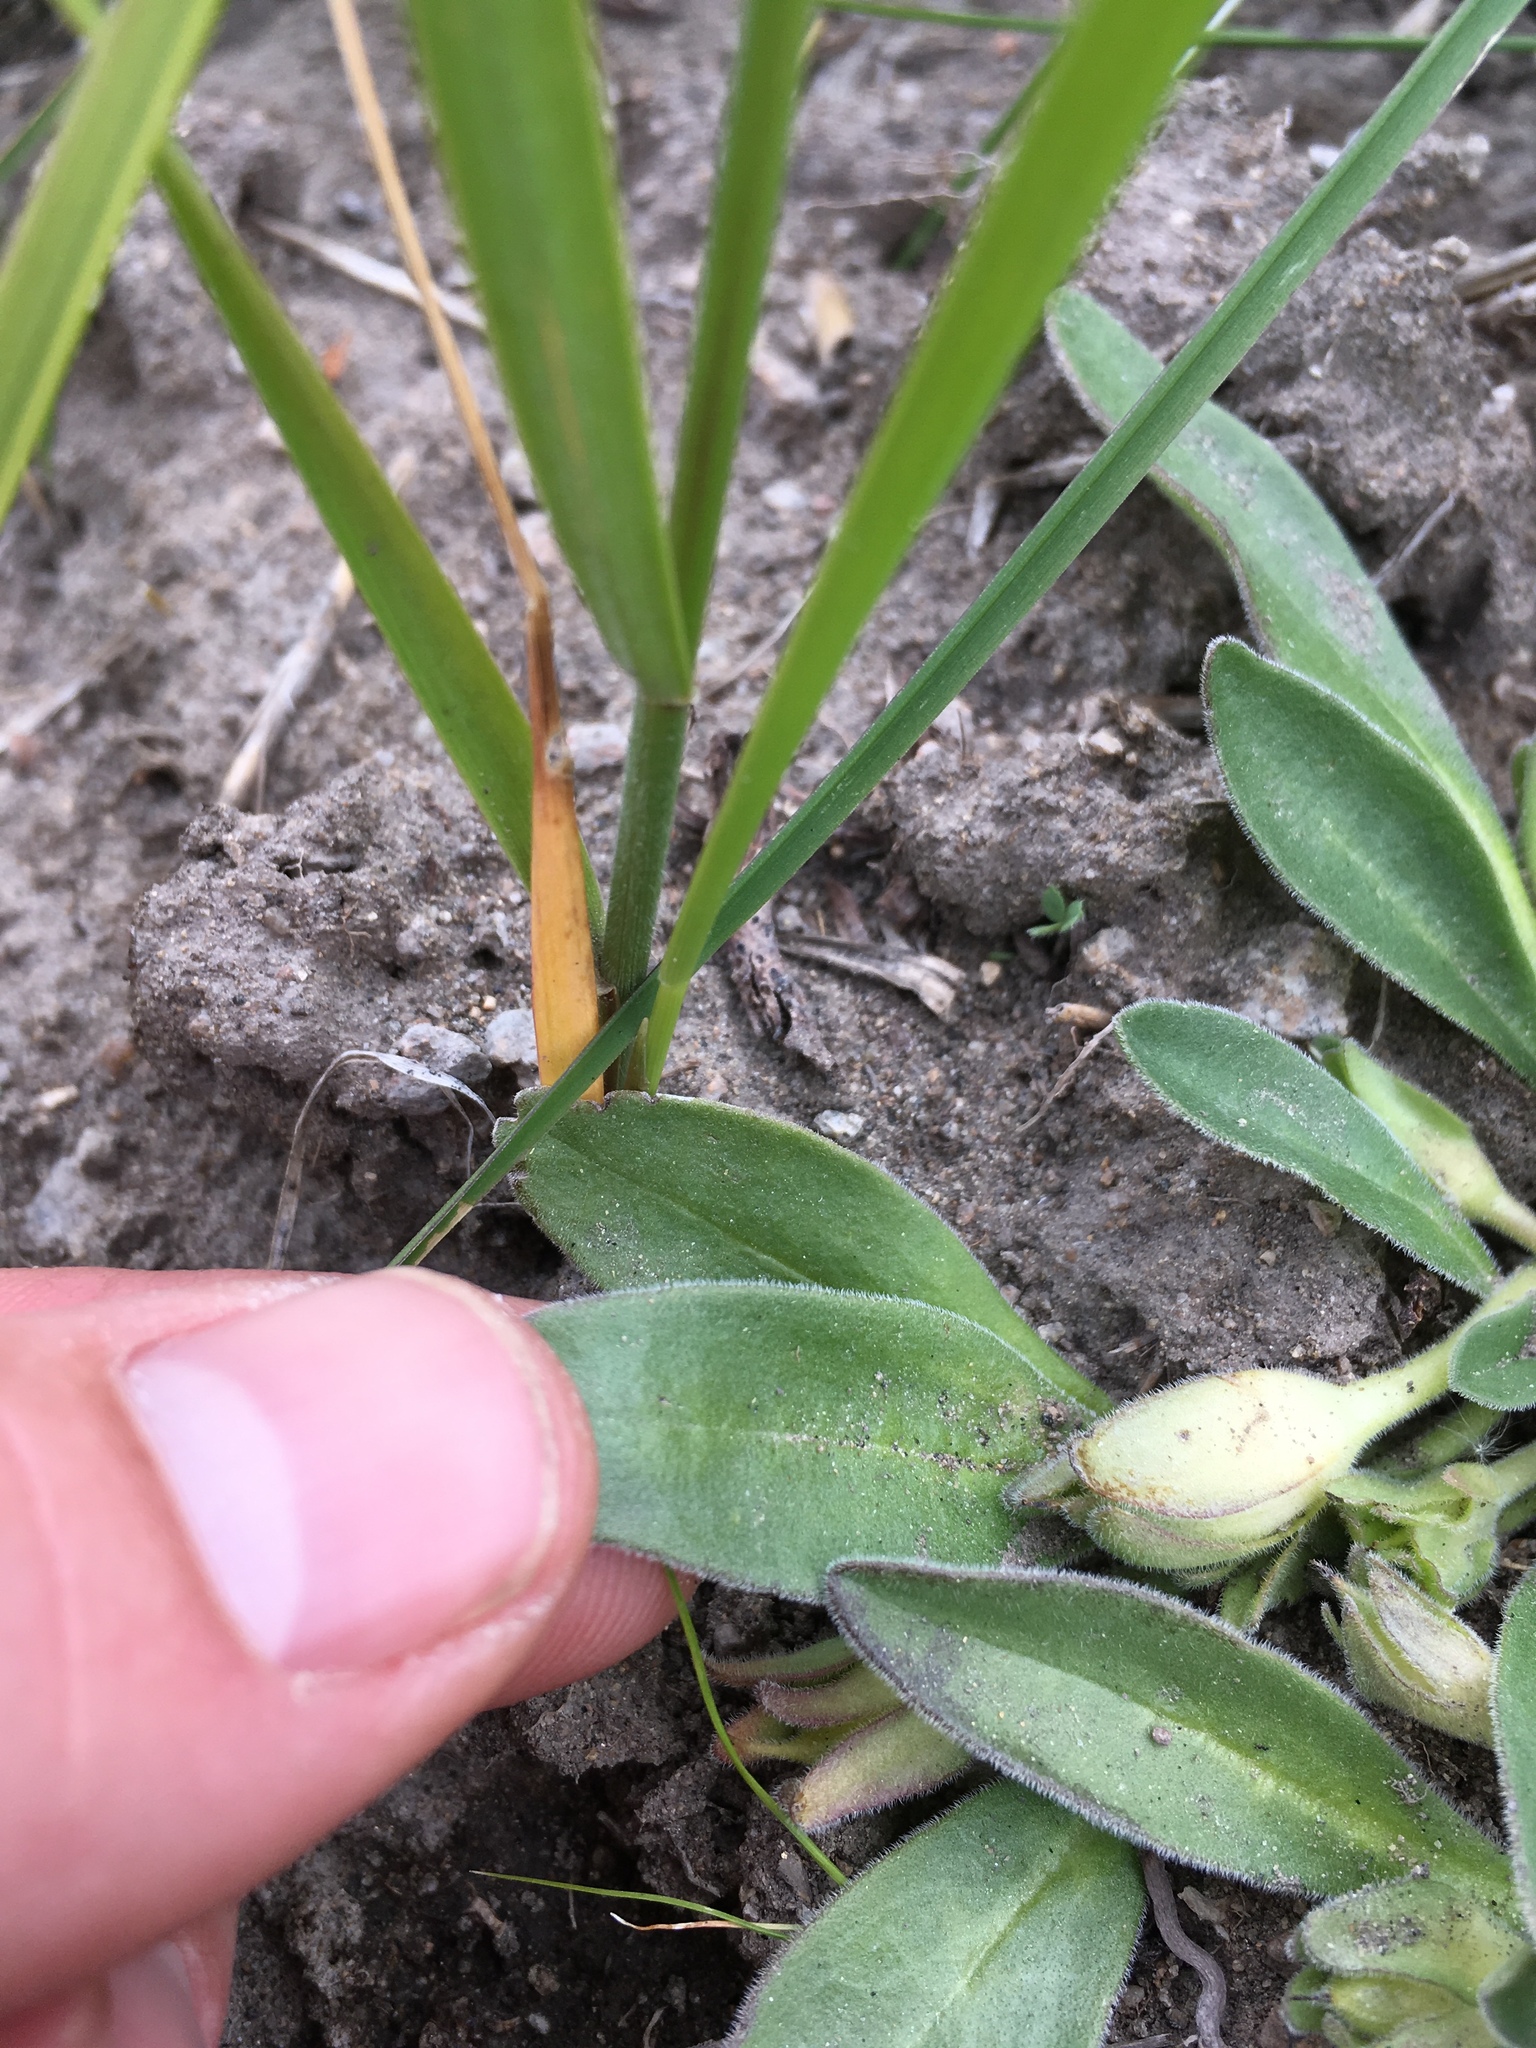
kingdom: Plantae
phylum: Tracheophyta
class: Magnoliopsida
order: Boraginales
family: Hydrophyllaceae
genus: Hesperochiron
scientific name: Hesperochiron californicus
